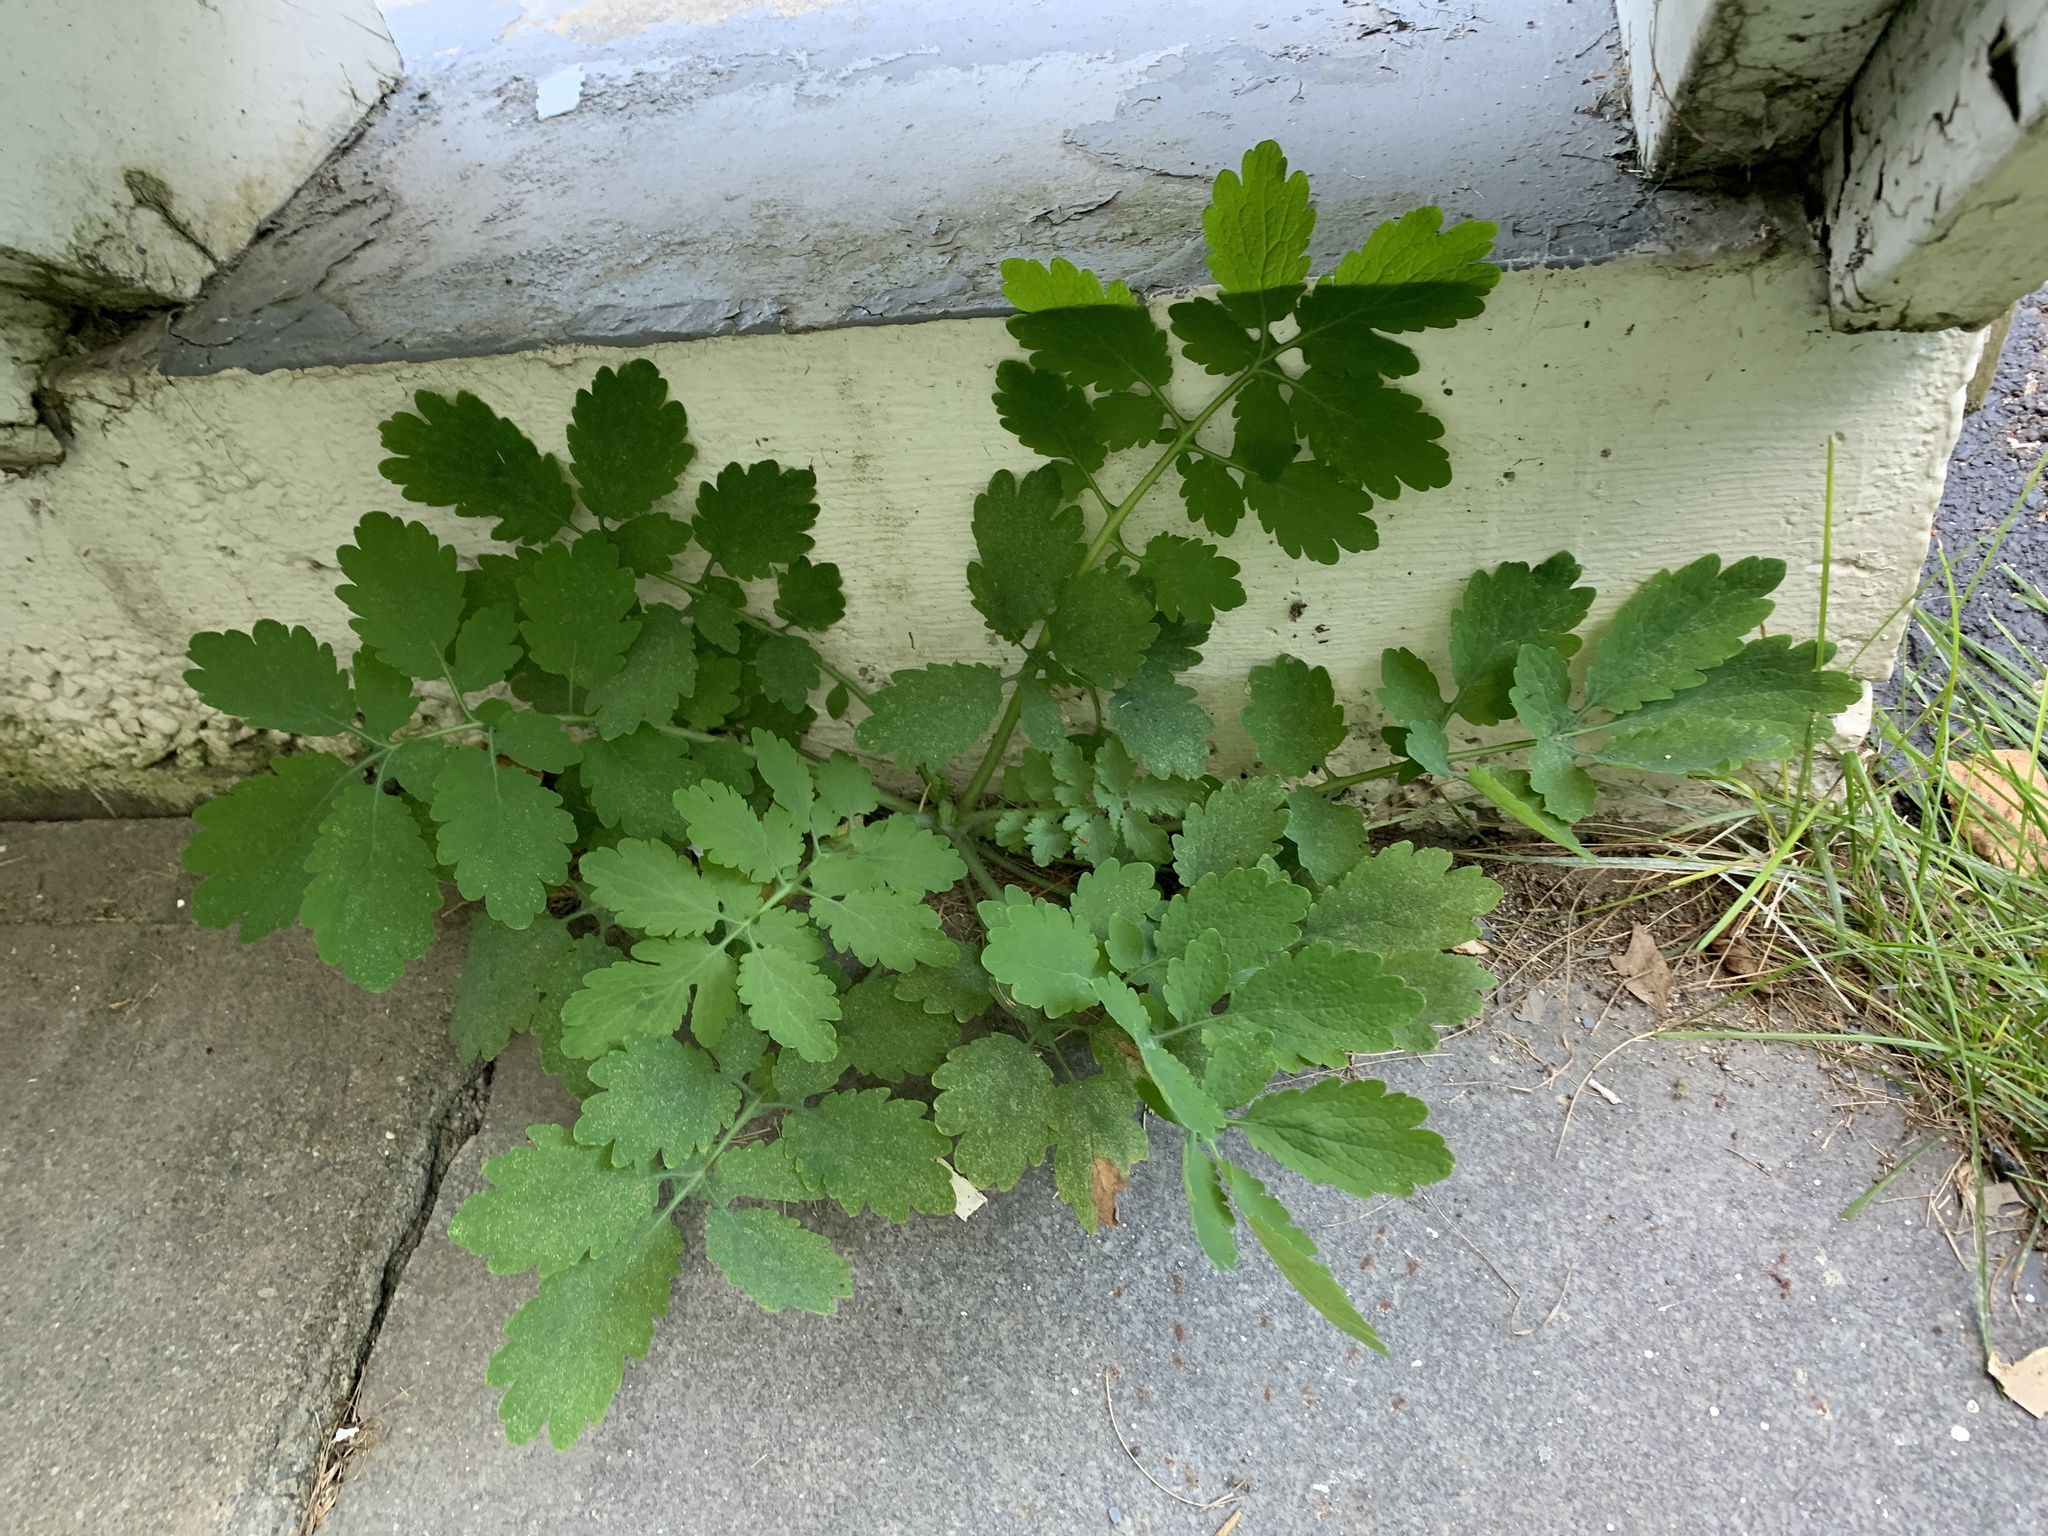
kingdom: Plantae
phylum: Tracheophyta
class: Magnoliopsida
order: Ranunculales
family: Papaveraceae
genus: Chelidonium
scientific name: Chelidonium majus
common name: Greater celandine
